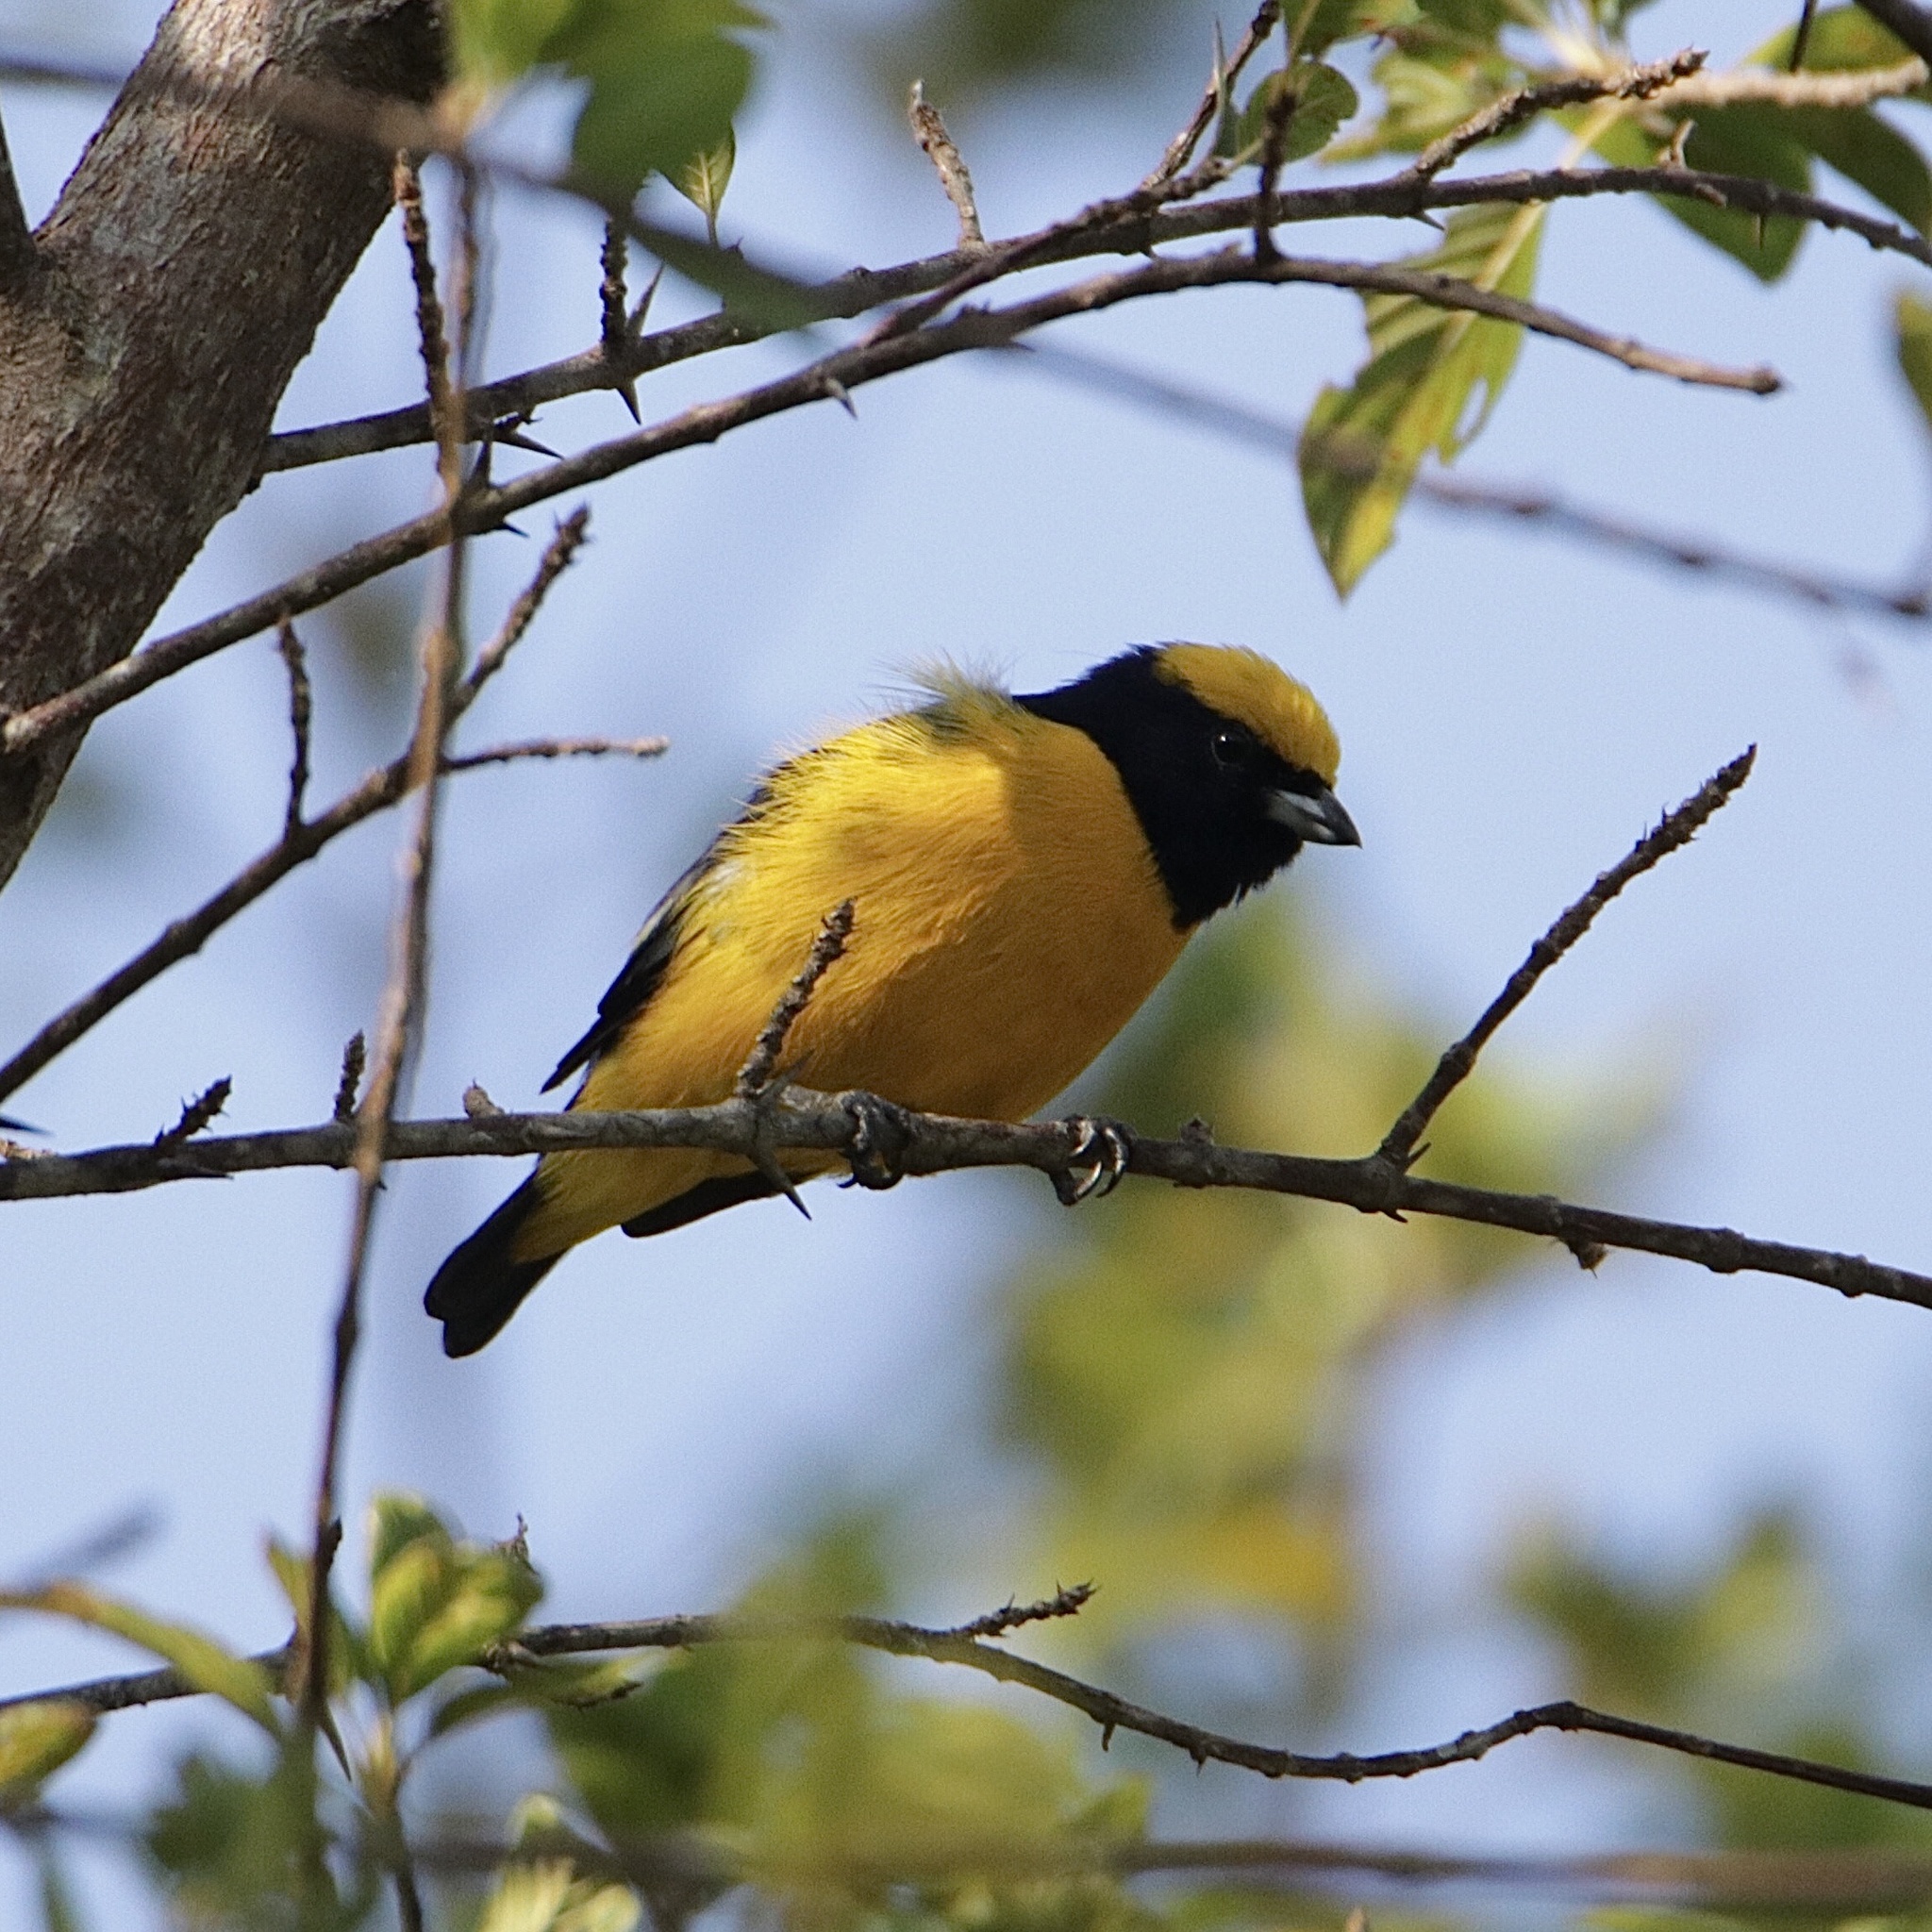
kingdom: Animalia
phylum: Chordata
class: Aves
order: Passeriformes
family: Fringillidae
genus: Euphonia
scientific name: Euphonia luteicapilla
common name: Yellow-crowned euphonia
